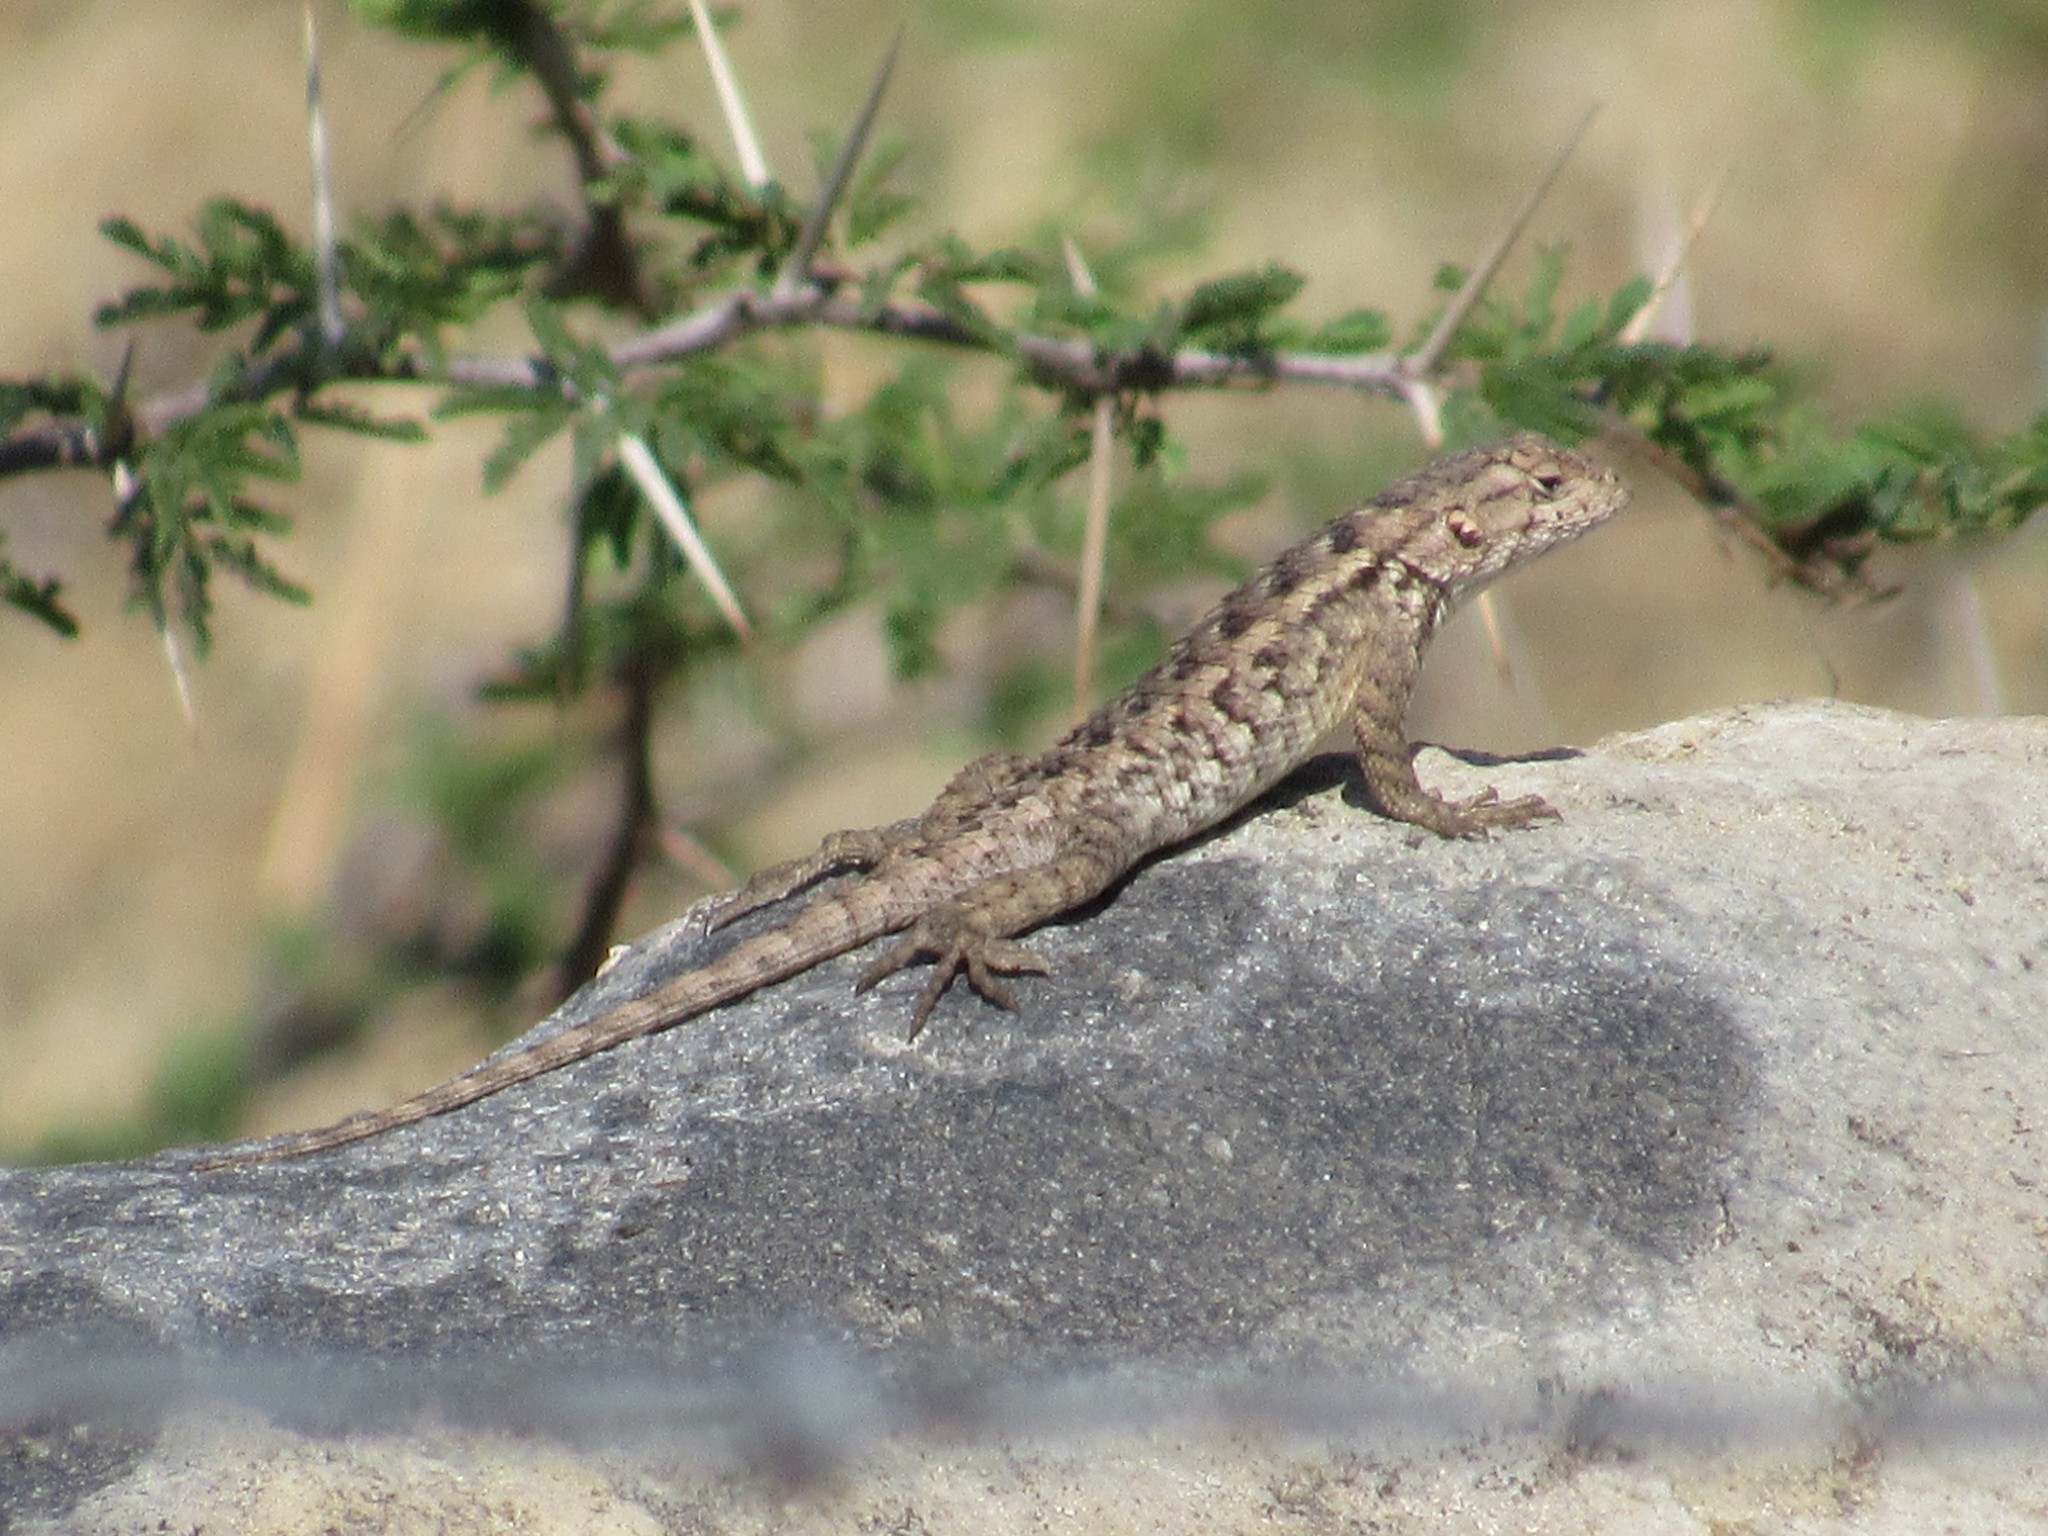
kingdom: Animalia
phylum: Chordata
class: Squamata
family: Phrynosomatidae
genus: Sceloporus
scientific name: Sceloporus spinosus
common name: Blue-spotted spiny lizard [caeruleopunctatus]
